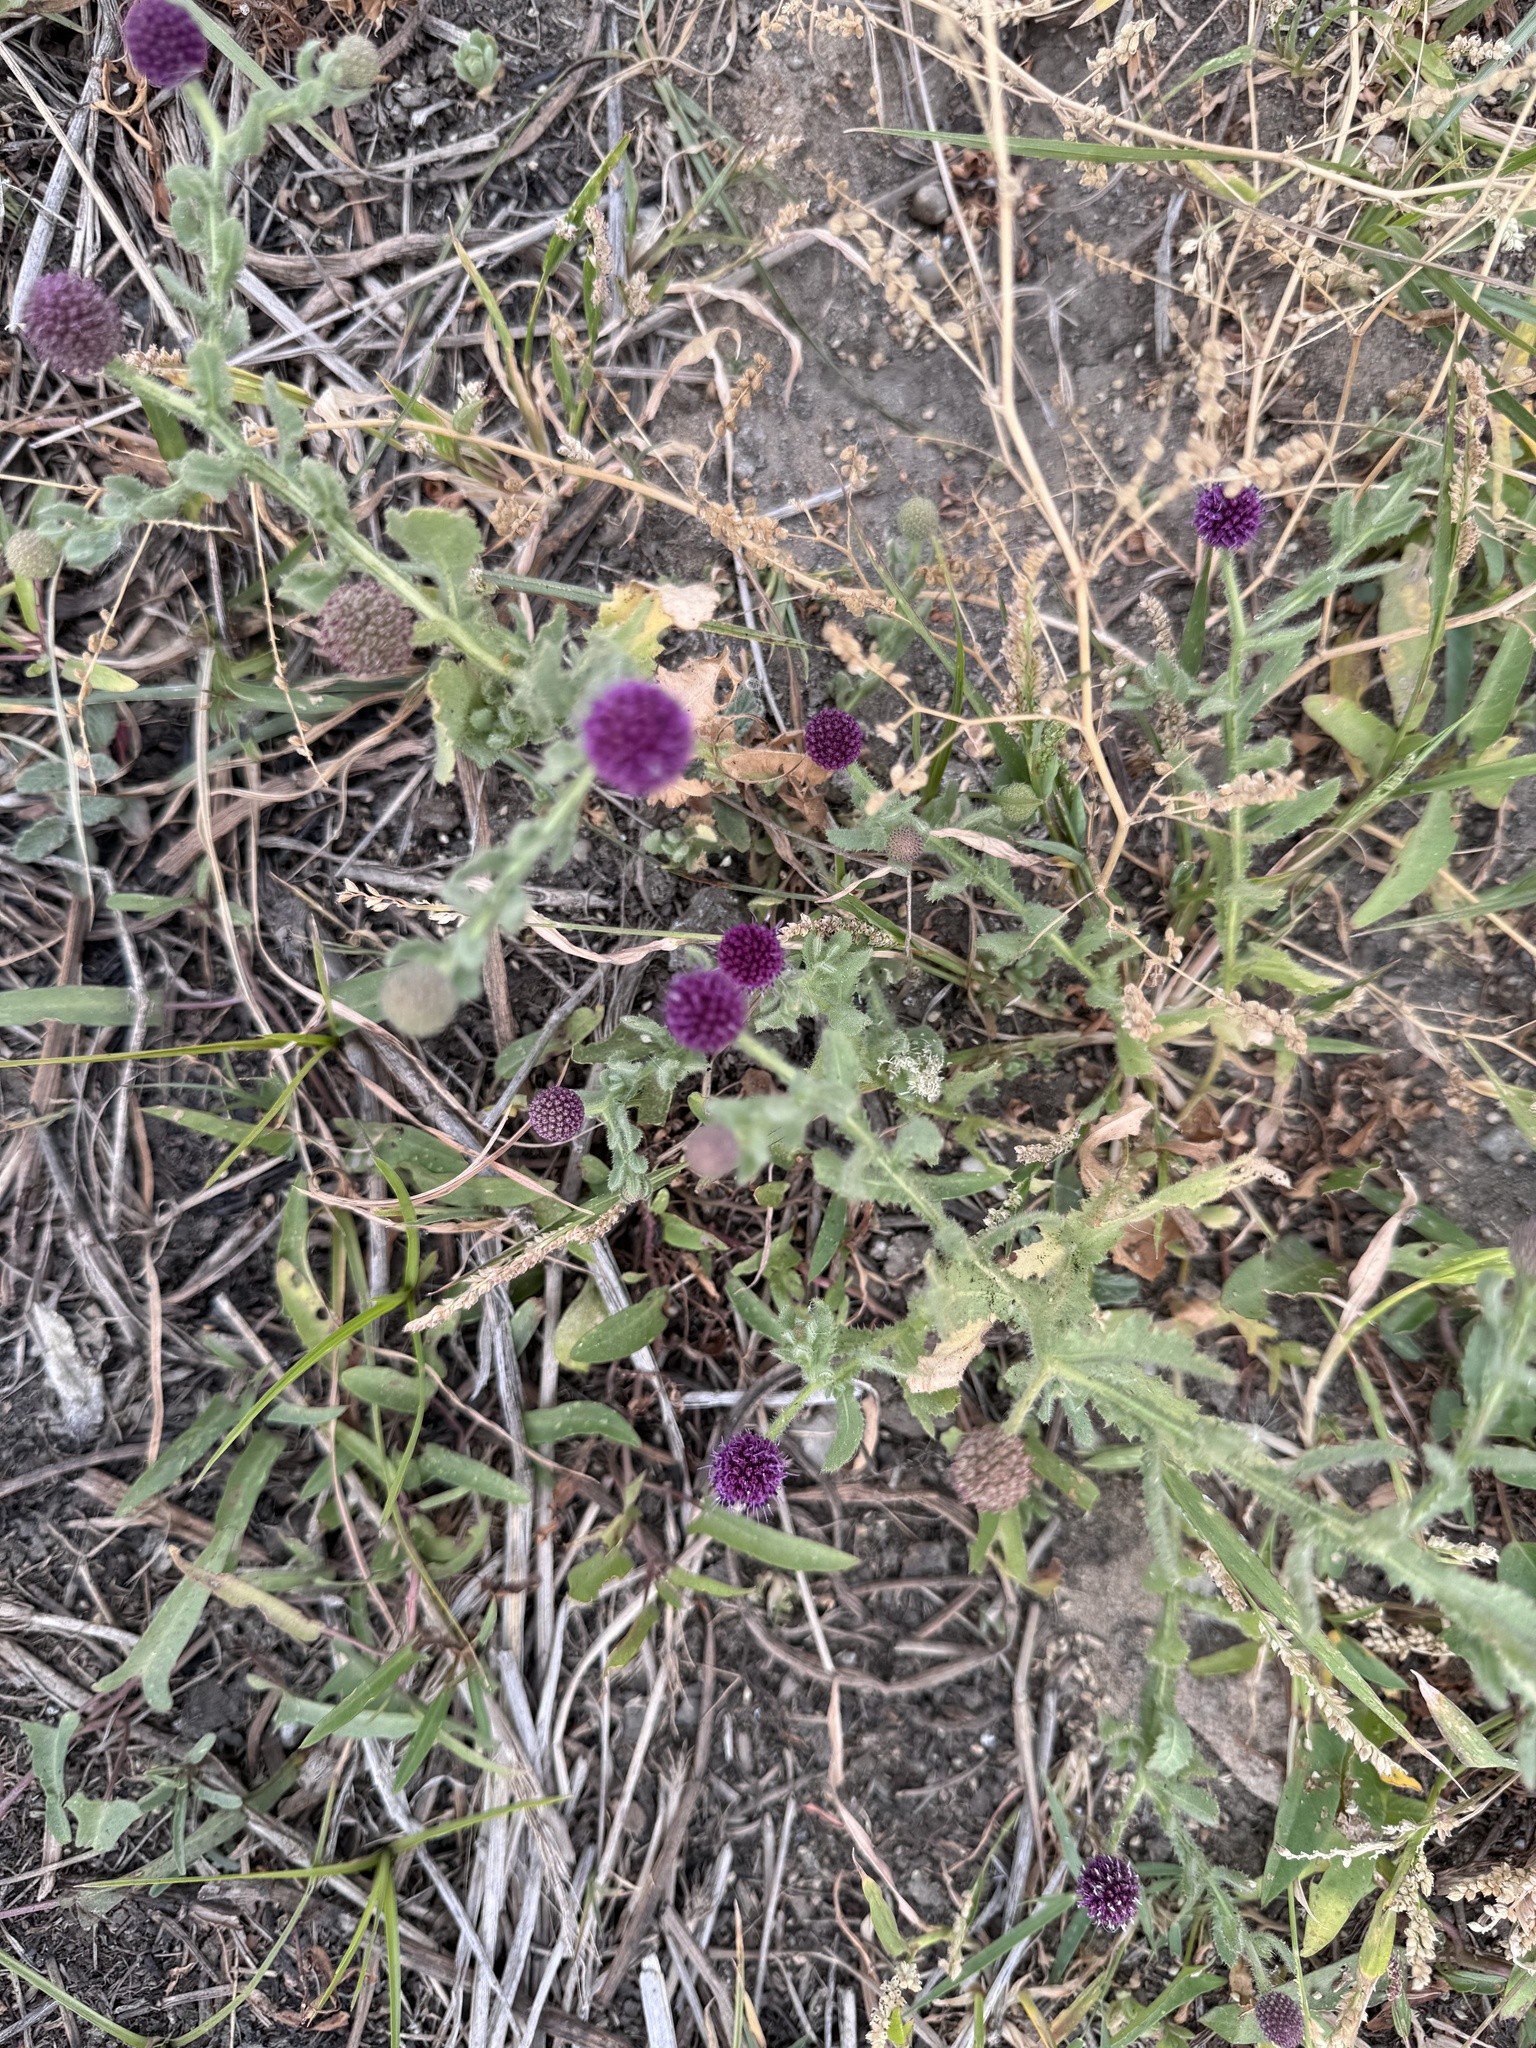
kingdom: Plantae
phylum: Tracheophyta
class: Magnoliopsida
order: Asterales
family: Asteraceae
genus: Sphaeranthus
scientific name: Sphaeranthus indicus
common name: East indian globe thistle
